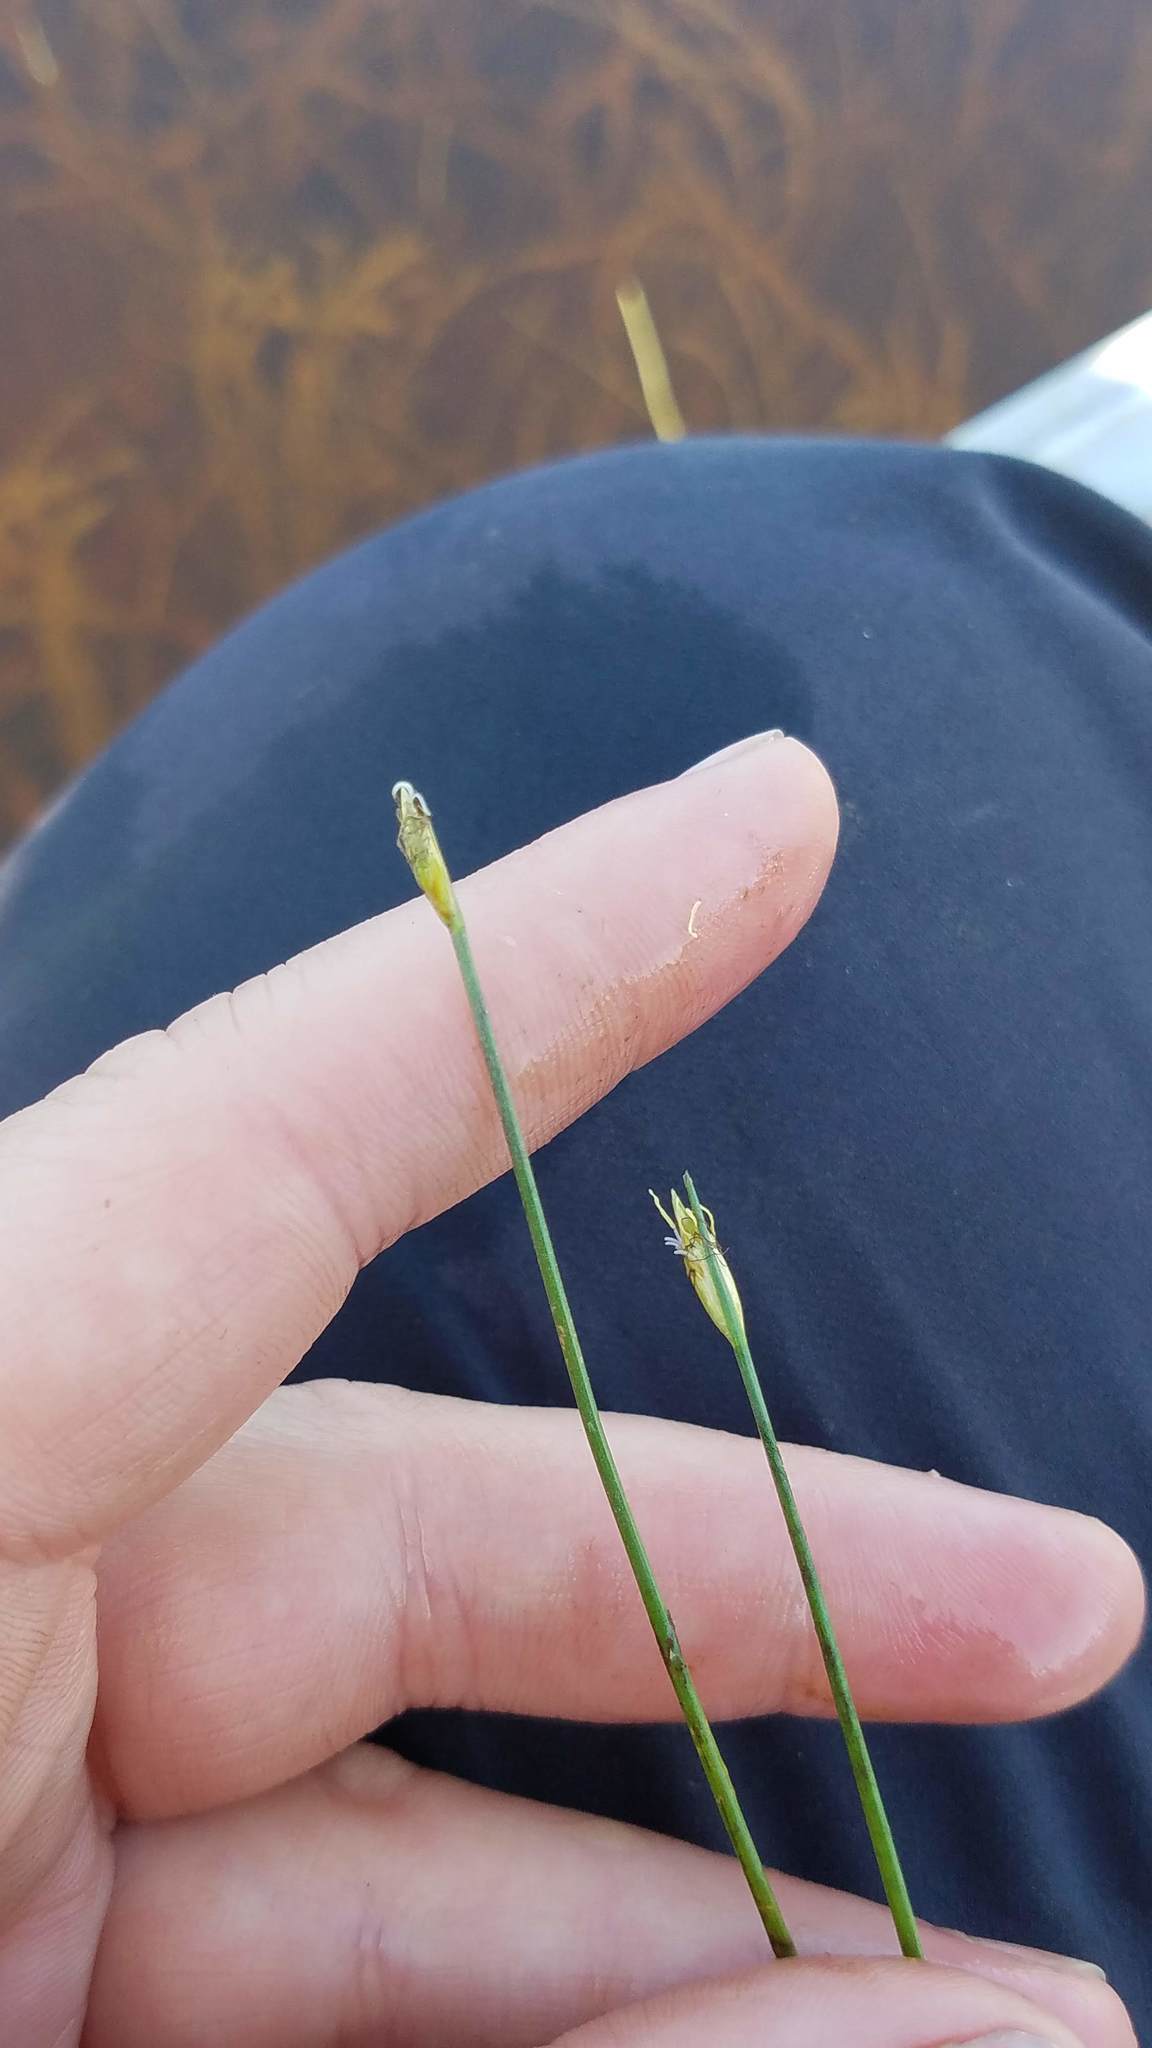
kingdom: Plantae
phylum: Tracheophyta
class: Liliopsida
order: Poales
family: Cyperaceae
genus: Schoenoplectus
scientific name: Schoenoplectus subterminalis
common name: Swaying bulrush
